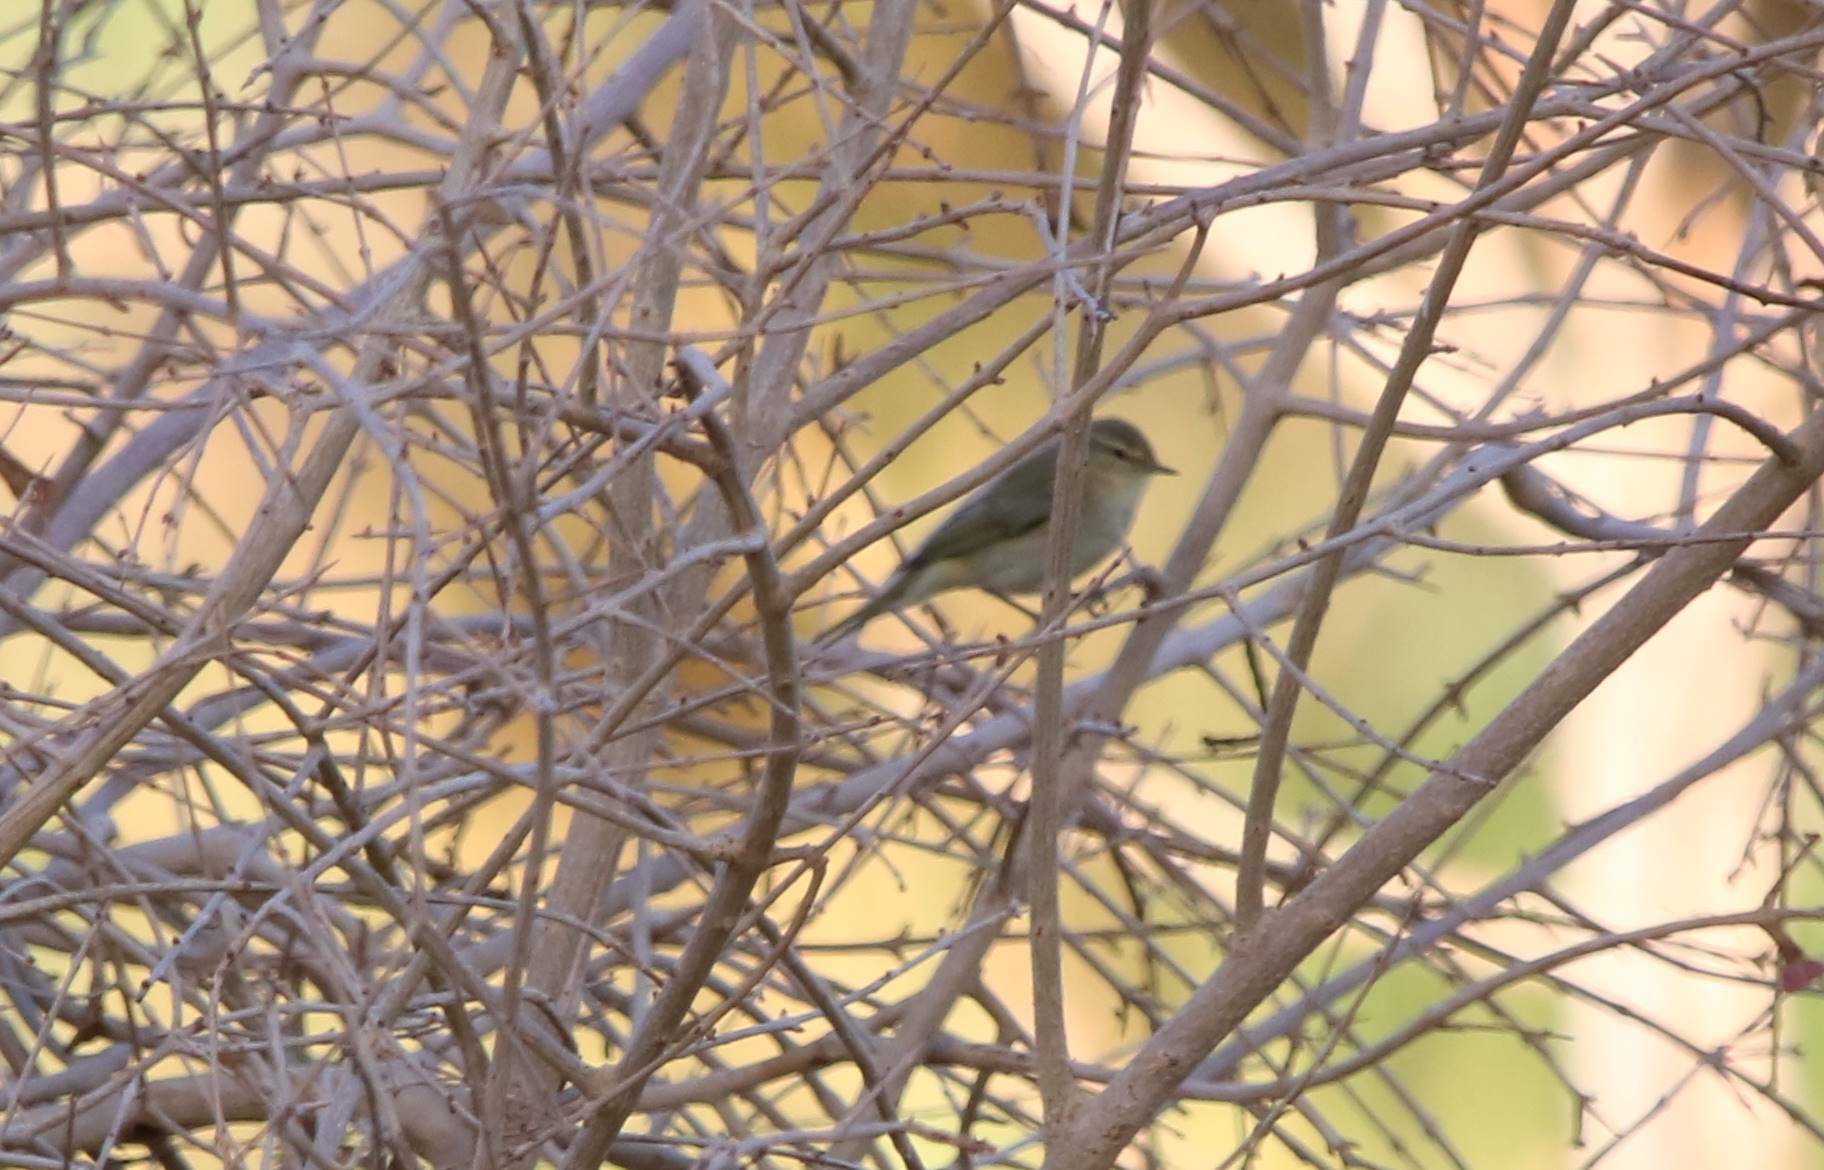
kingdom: Animalia
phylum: Chordata
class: Aves
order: Passeriformes
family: Phylloscopidae
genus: Phylloscopus
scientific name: Phylloscopus collybita
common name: Common chiffchaff
